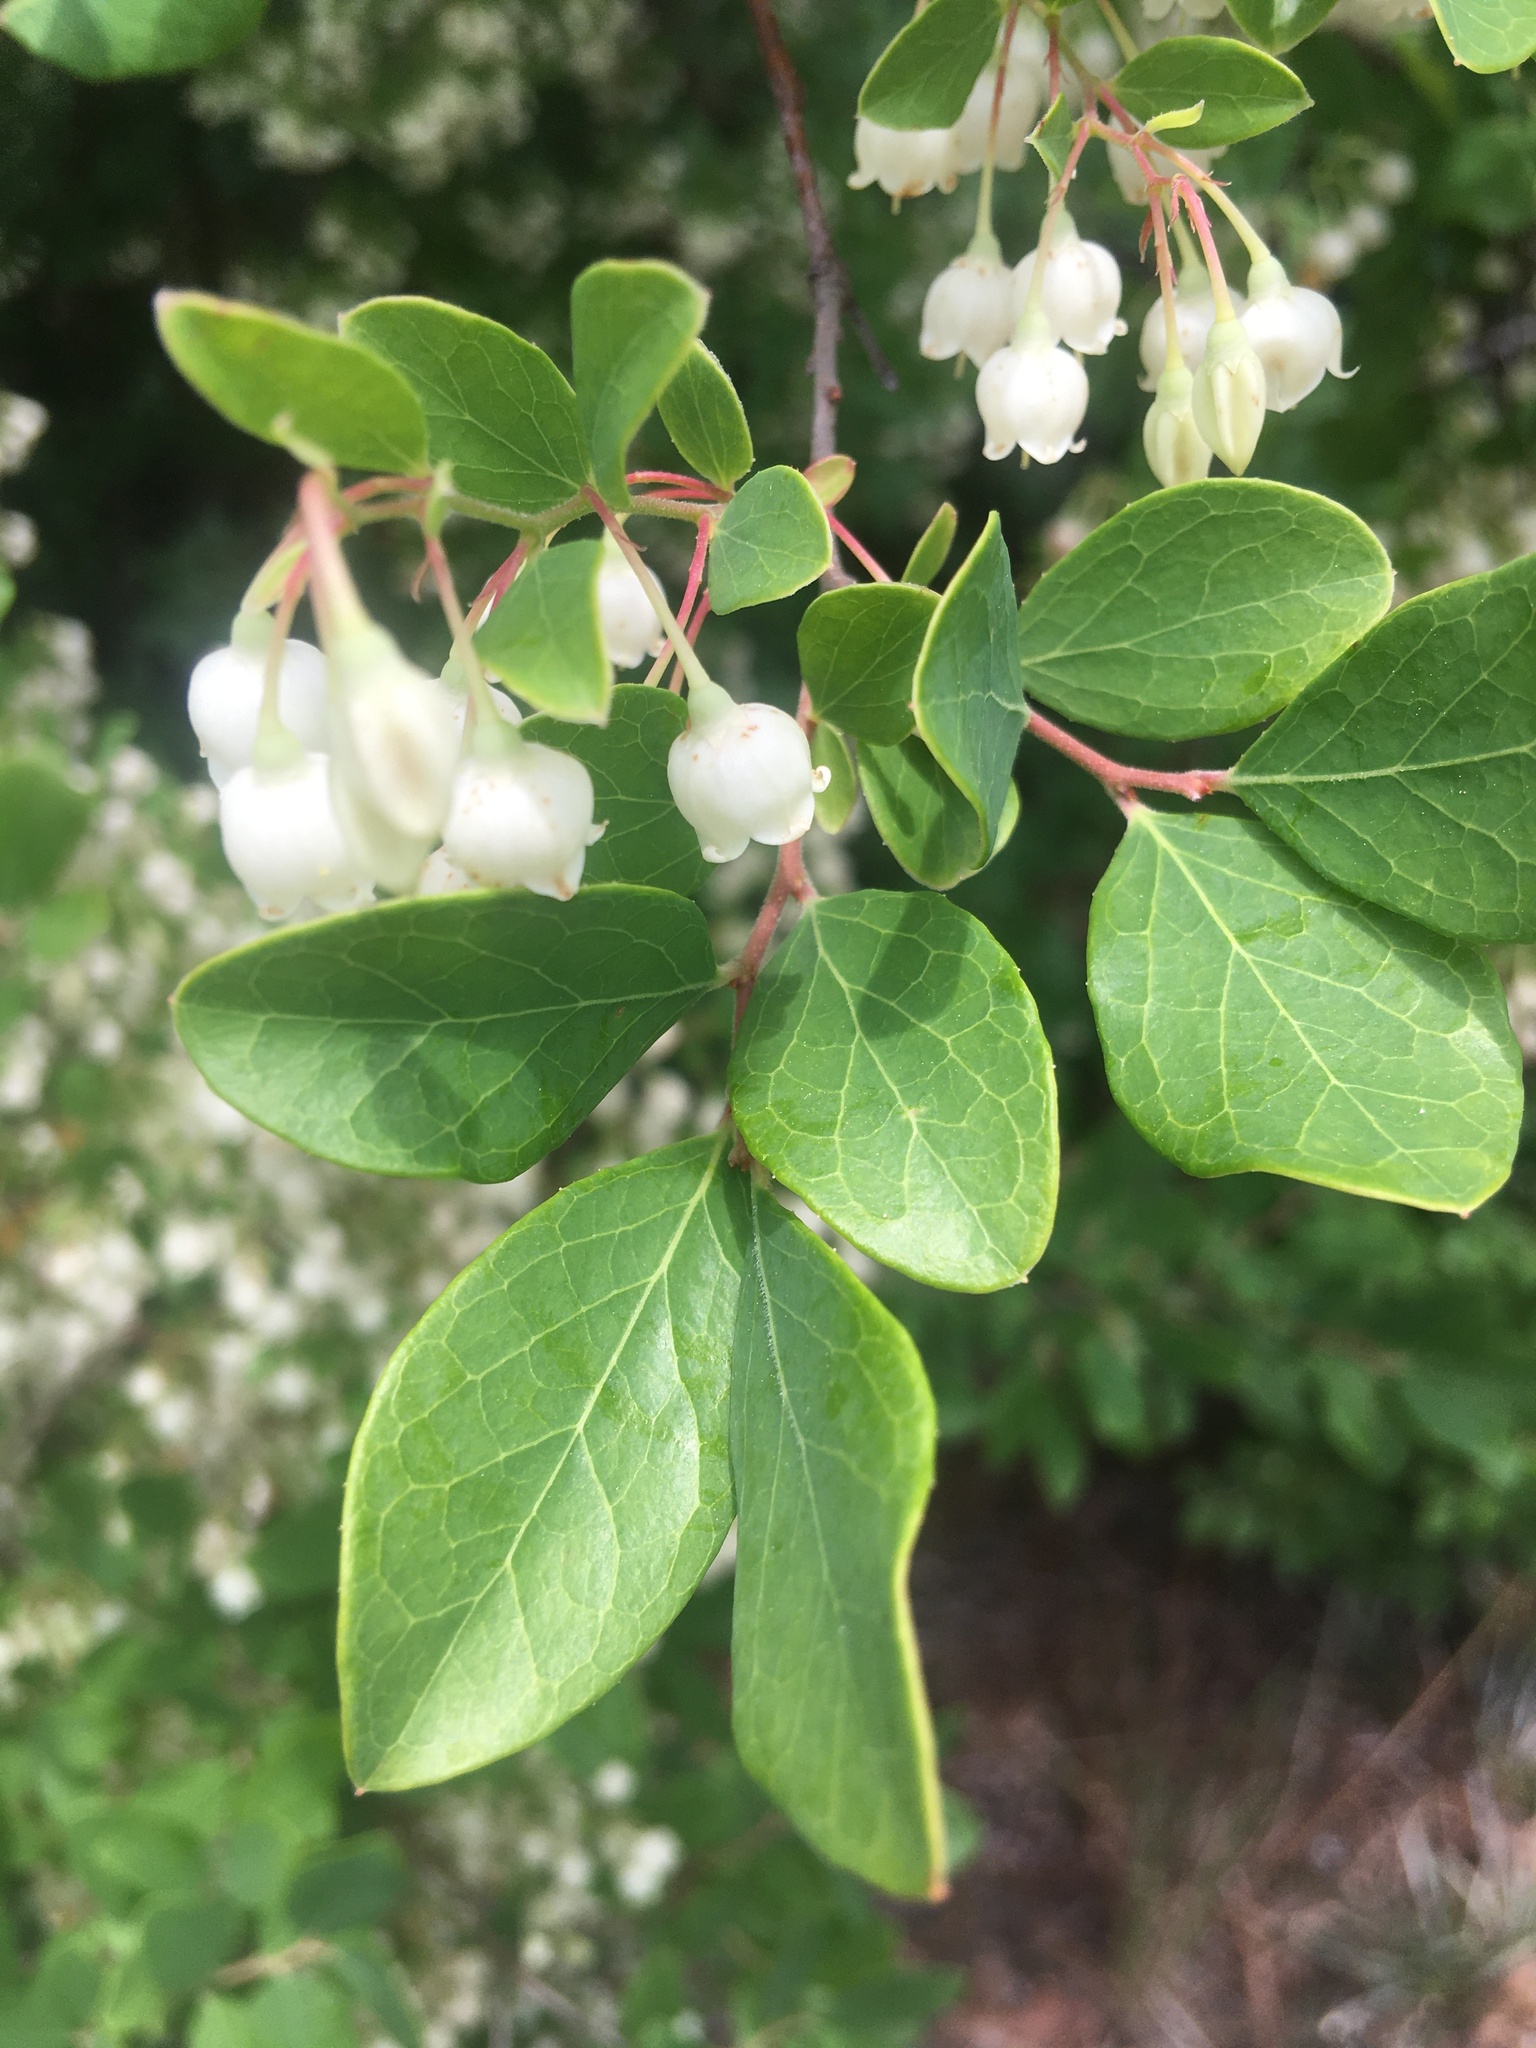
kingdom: Plantae
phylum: Tracheophyta
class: Magnoliopsida
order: Ericales
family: Ericaceae
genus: Vaccinium
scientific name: Vaccinium arboreum
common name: Farkleberry
